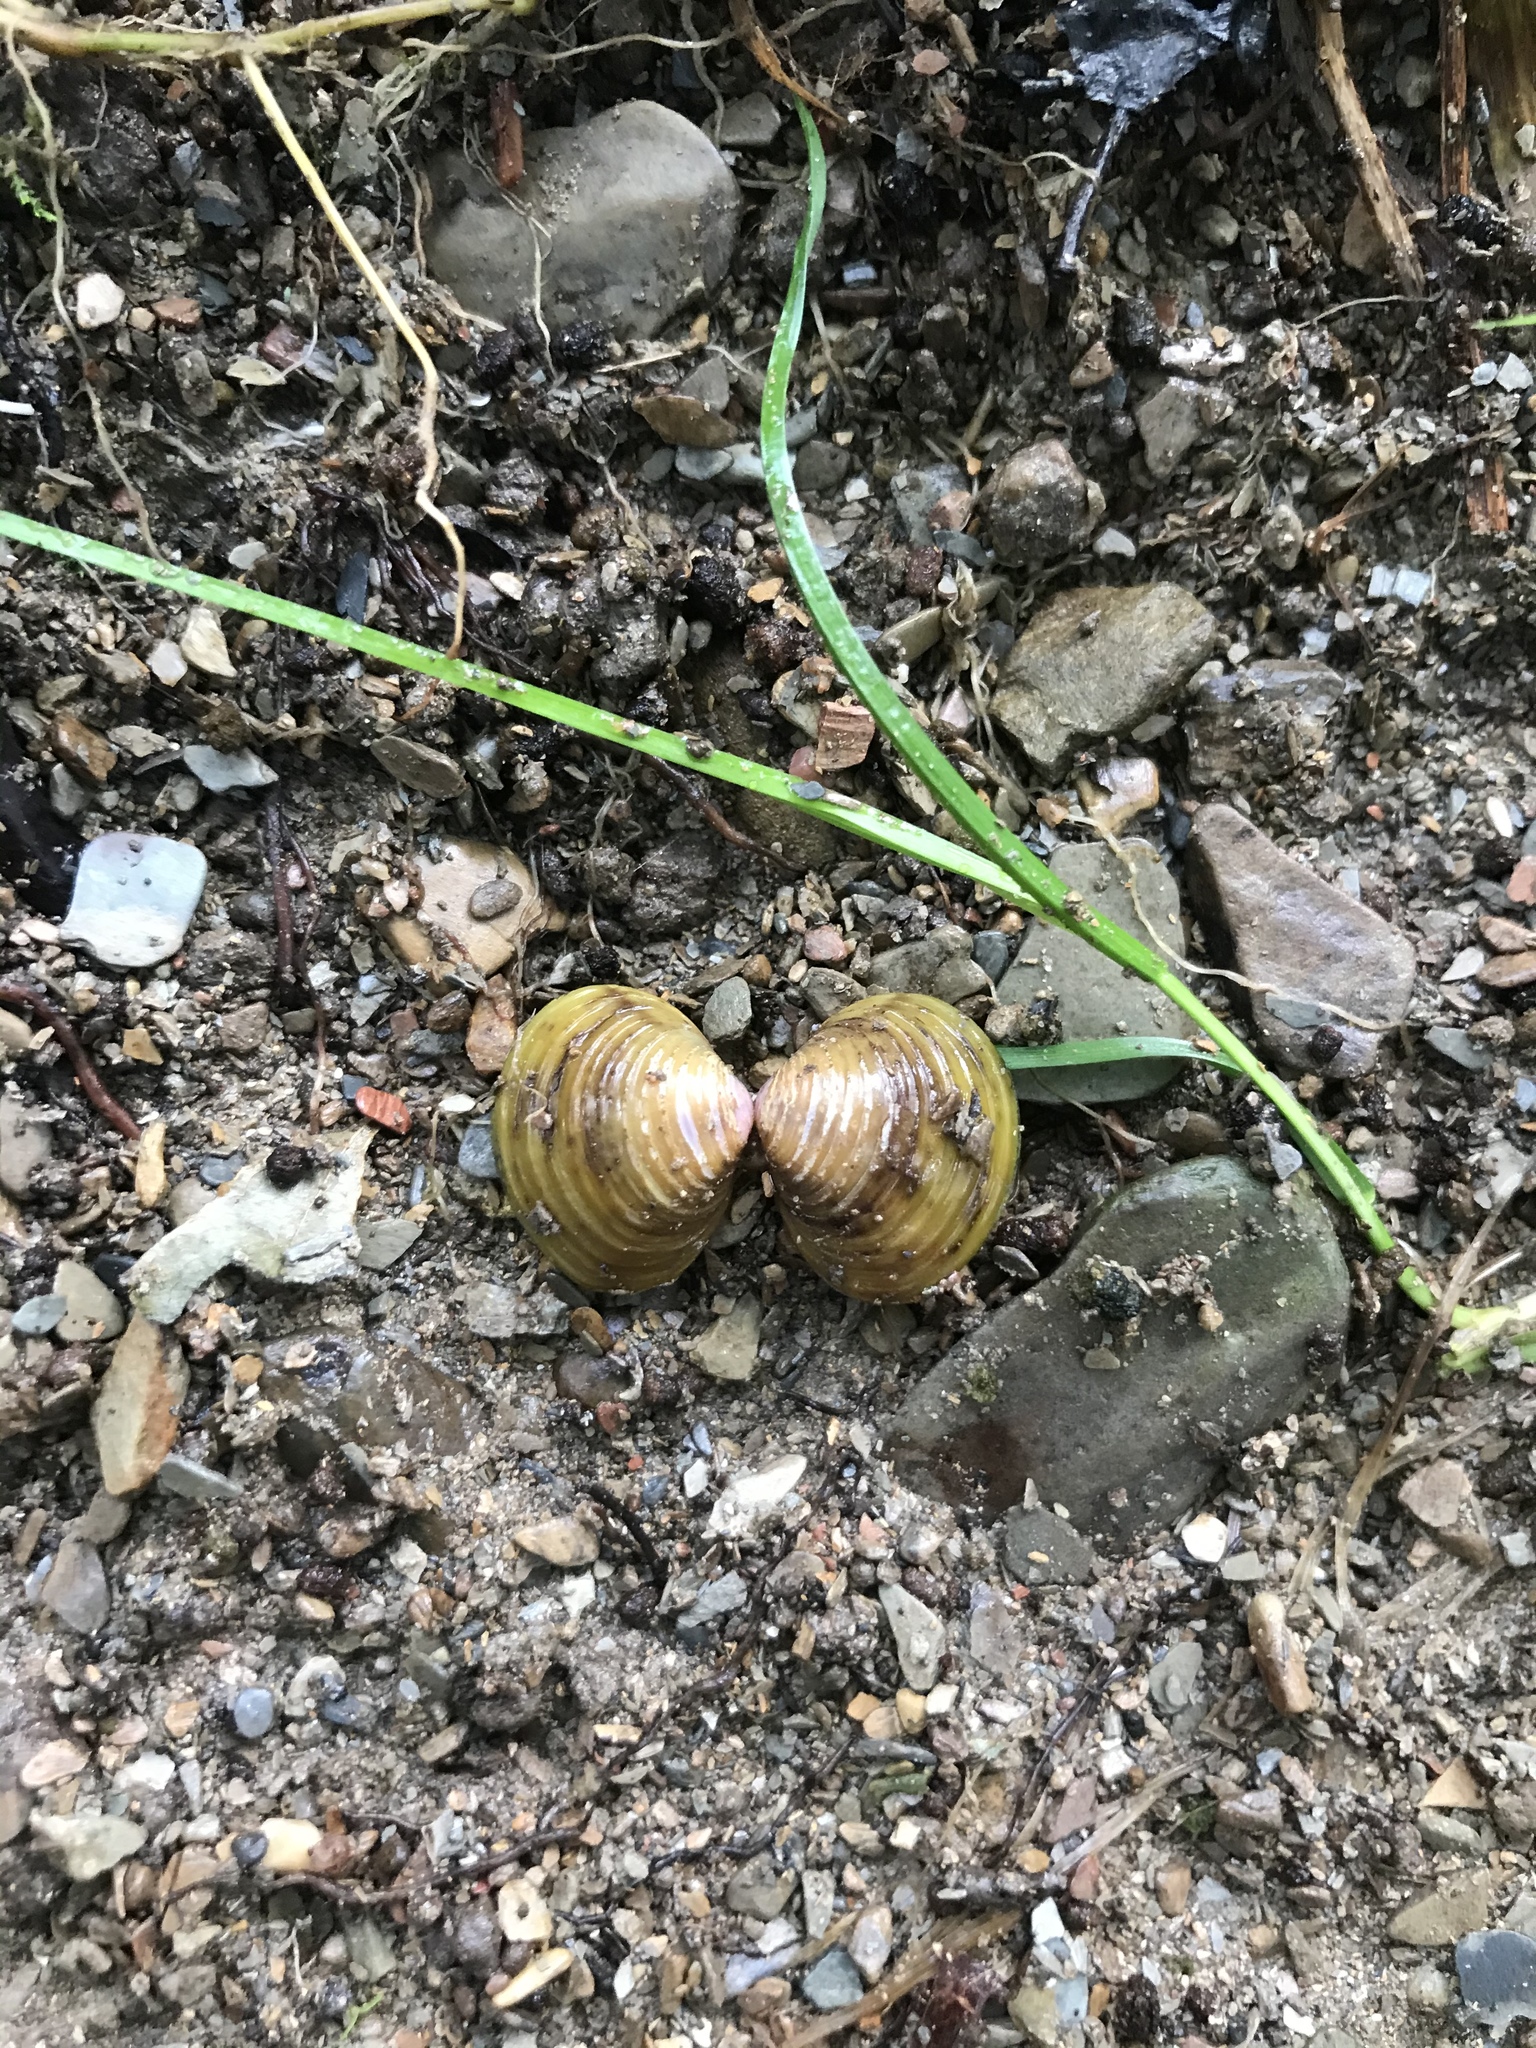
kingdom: Animalia
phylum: Mollusca
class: Bivalvia
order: Venerida
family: Cyrenidae
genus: Corbicula
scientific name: Corbicula fluminea
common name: Asian clam
